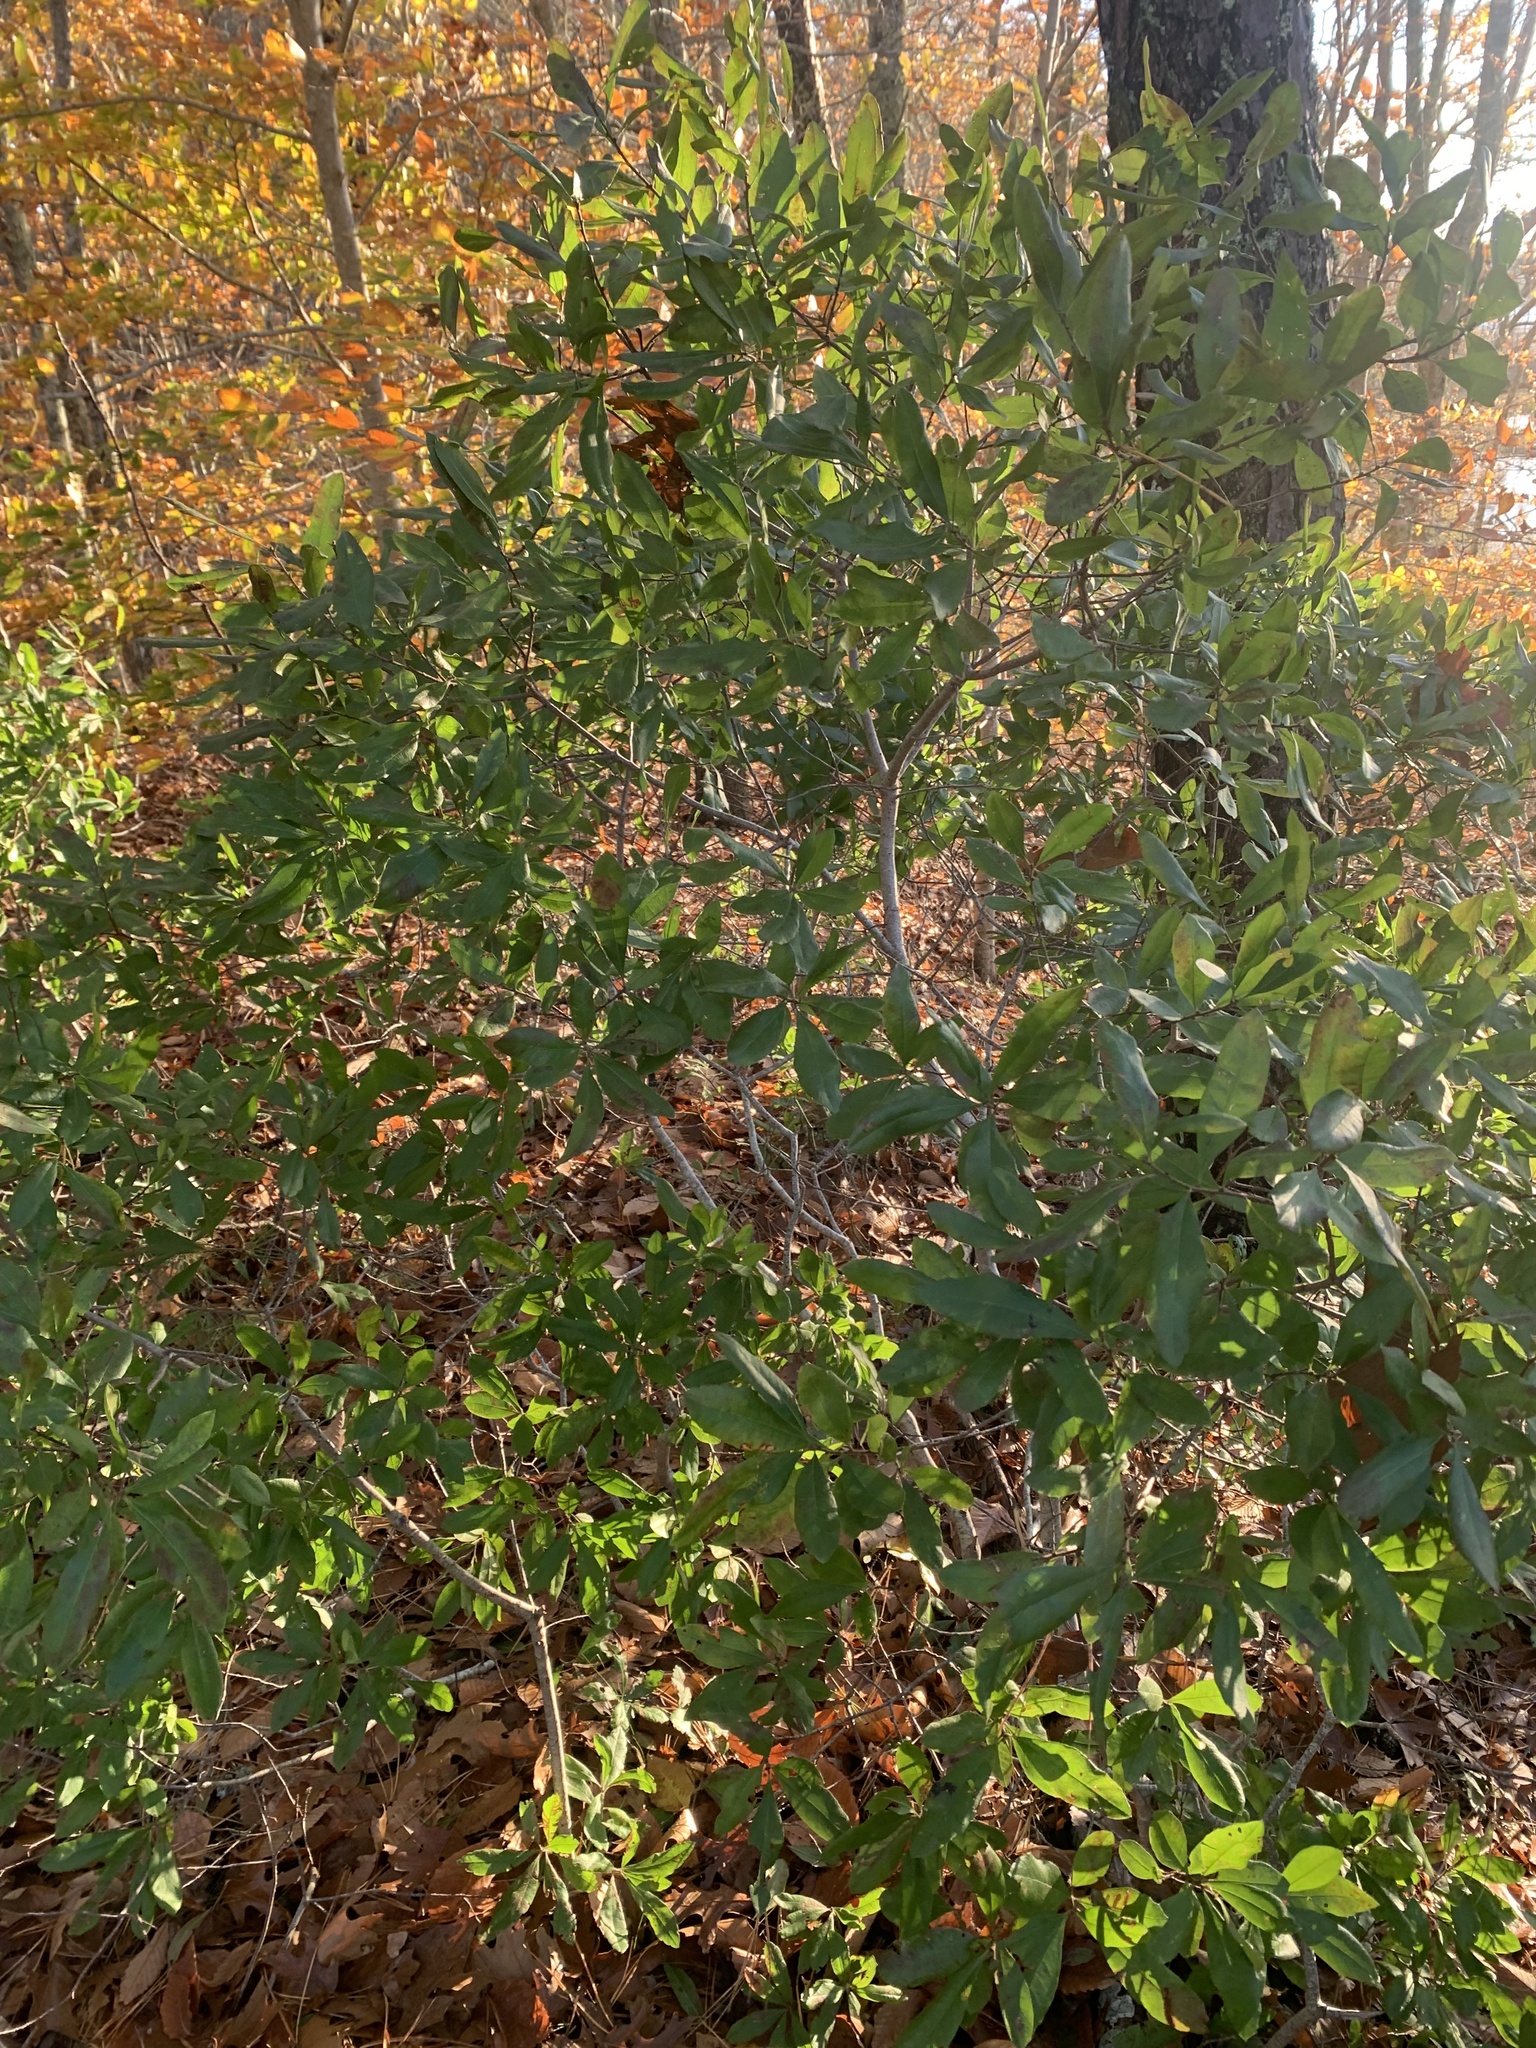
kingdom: Plantae
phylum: Tracheophyta
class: Magnoliopsida
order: Fagales
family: Myricaceae
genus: Morella
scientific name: Morella pensylvanica
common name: Northern bayberry
